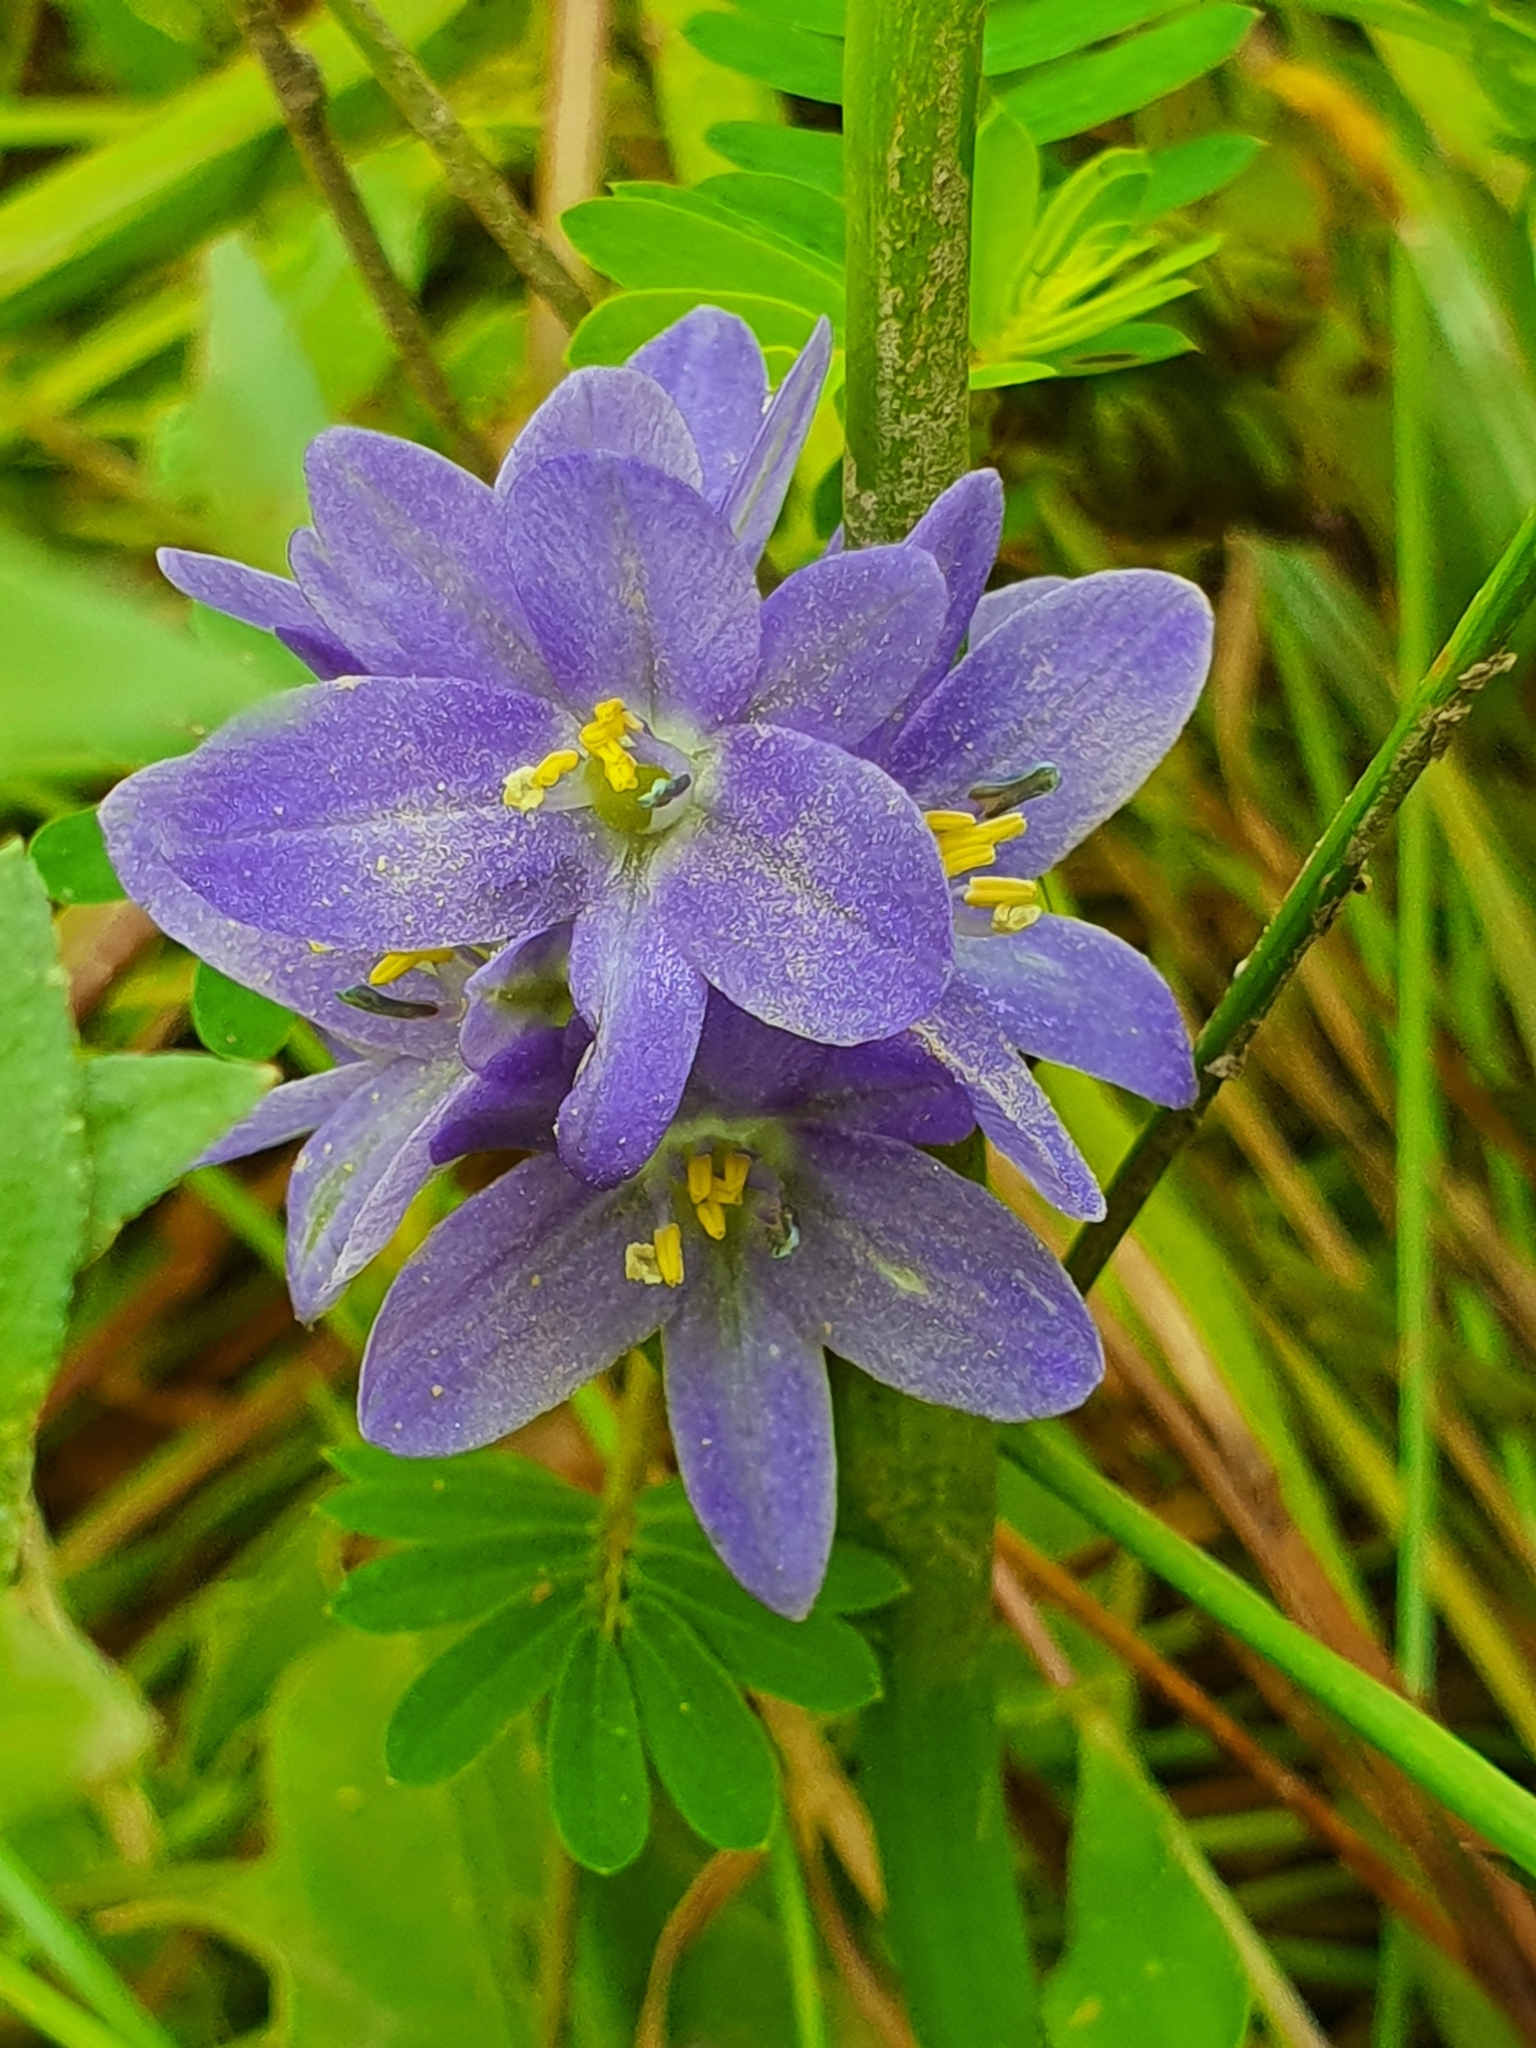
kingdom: Plantae
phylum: Tracheophyta
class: Liliopsida
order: Commelinales
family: Pontederiaceae
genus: Pontederia
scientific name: Pontederia vaginalis
